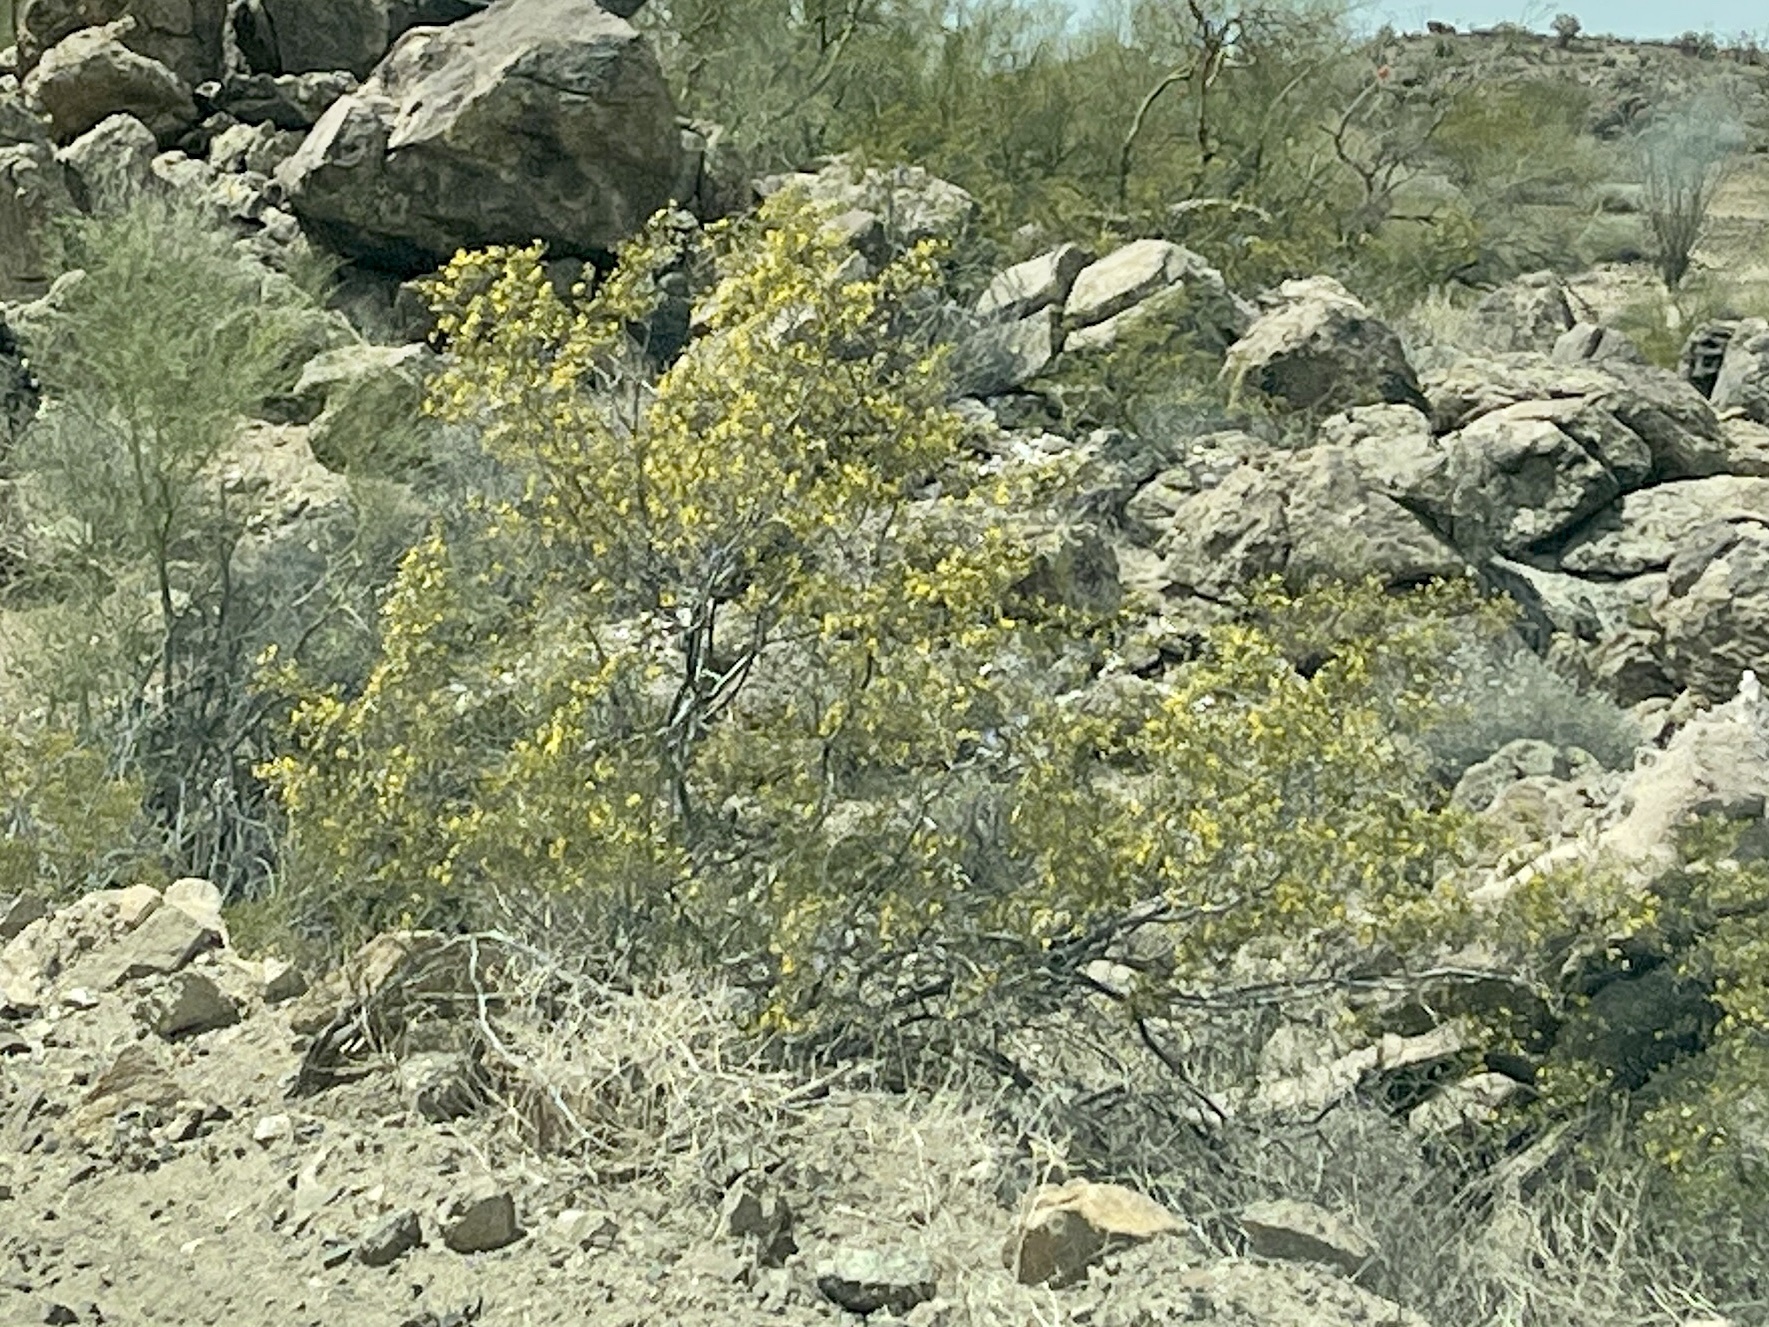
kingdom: Plantae
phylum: Tracheophyta
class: Magnoliopsida
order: Zygophyllales
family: Zygophyllaceae
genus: Larrea
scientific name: Larrea tridentata
